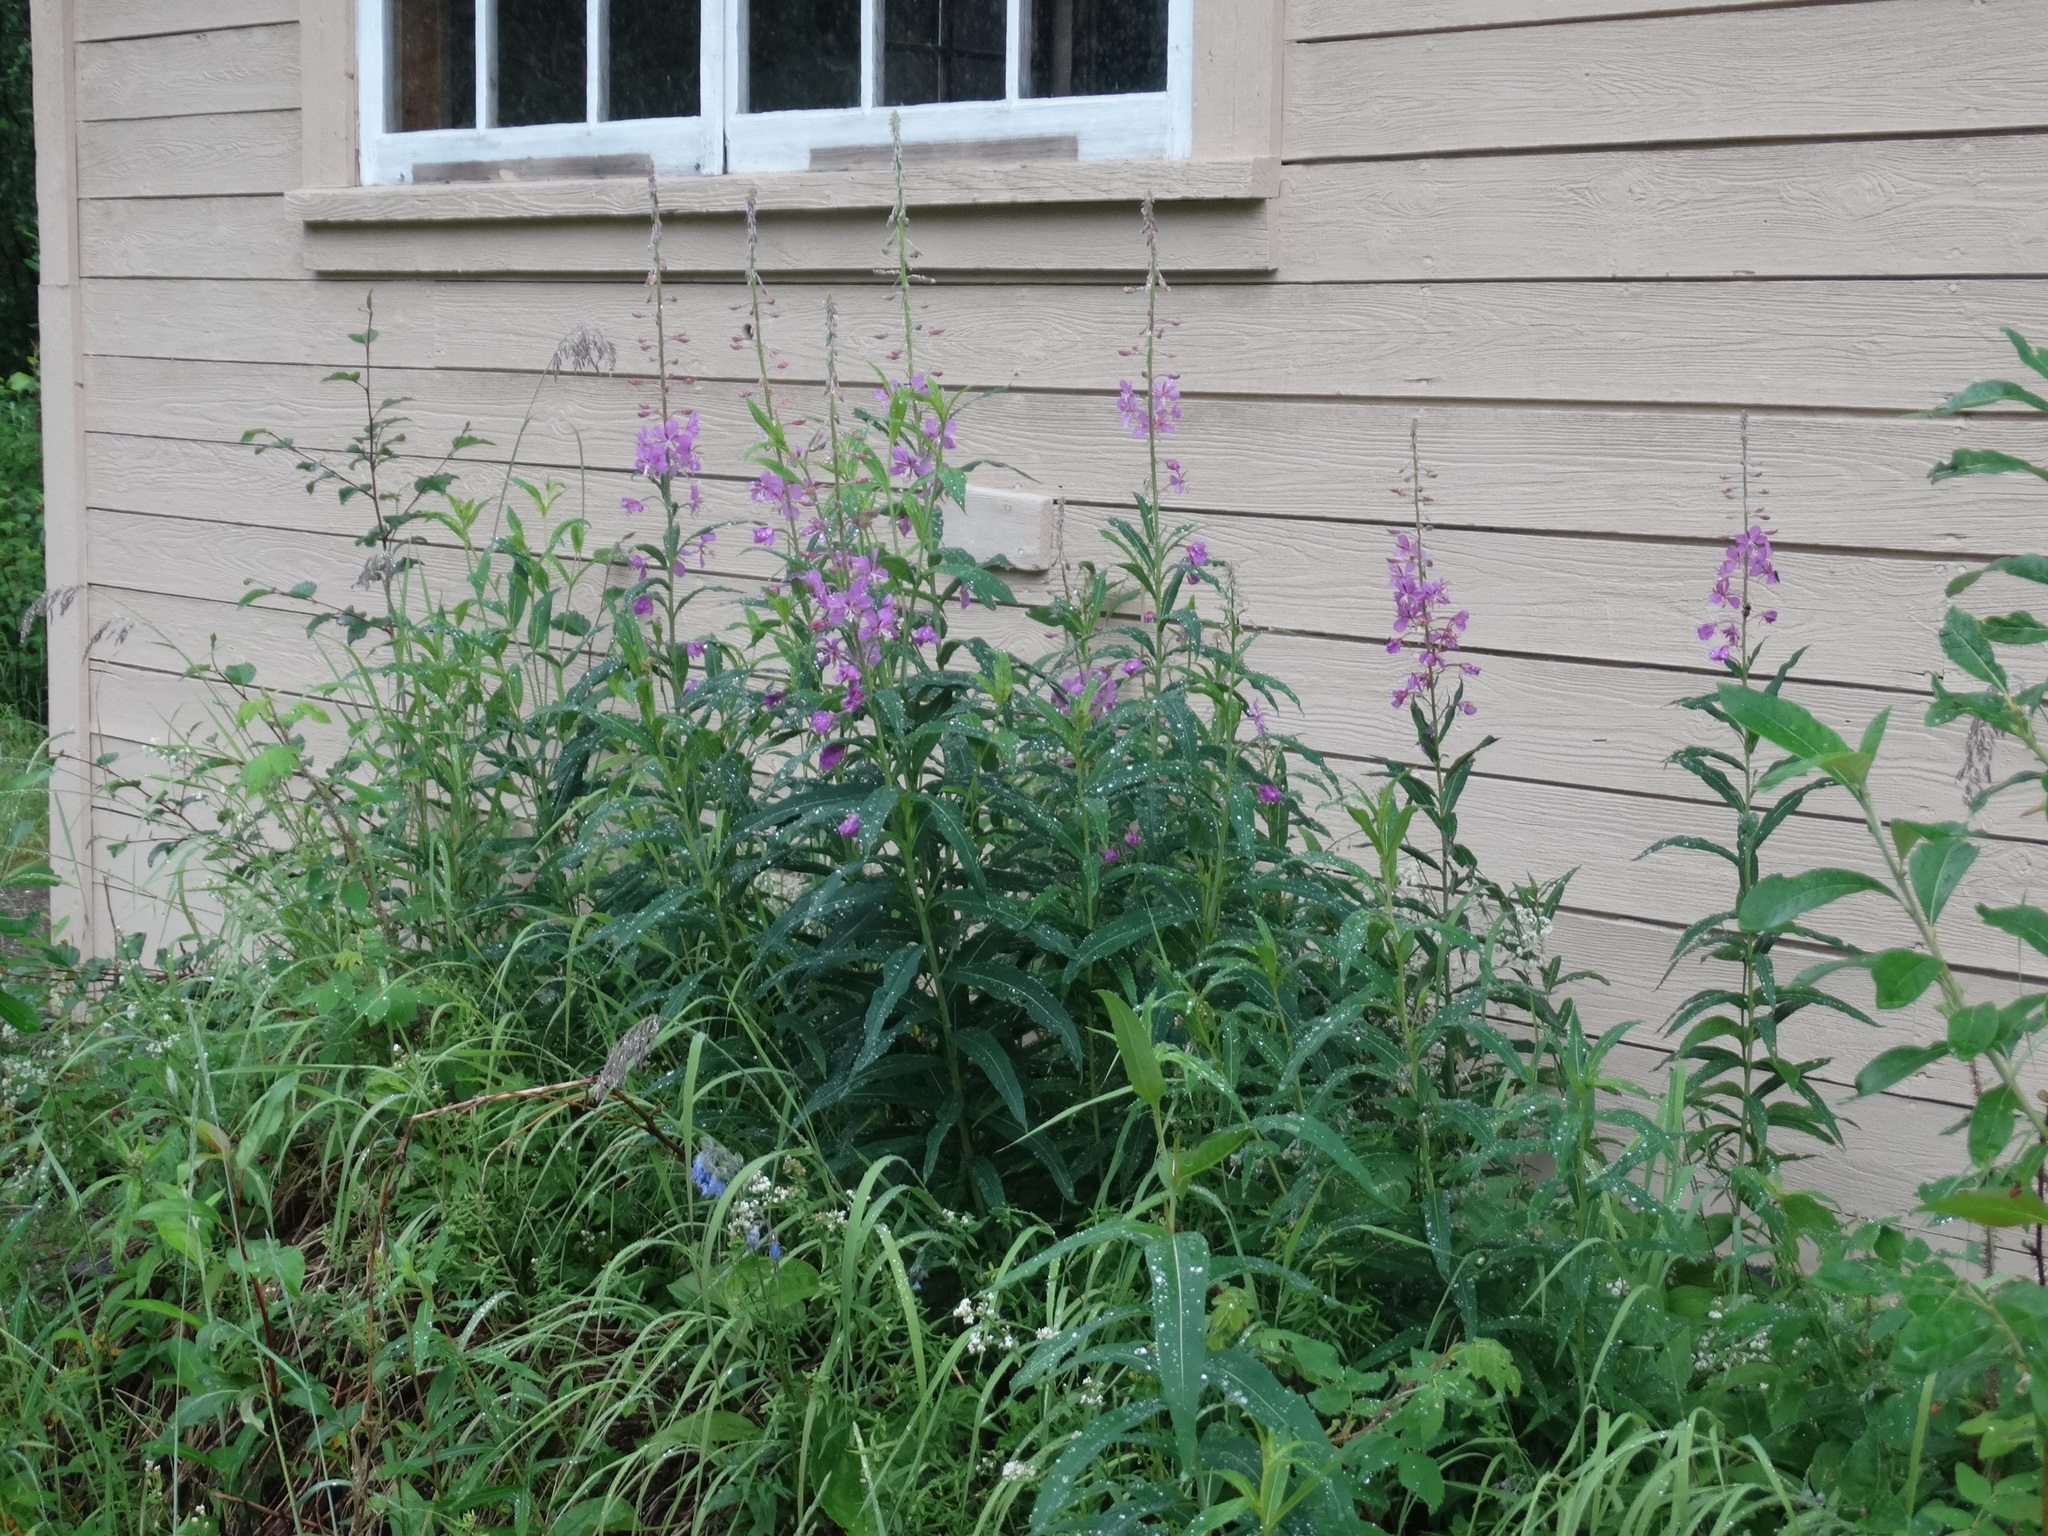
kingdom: Plantae
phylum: Tracheophyta
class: Magnoliopsida
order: Myrtales
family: Onagraceae
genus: Chamaenerion
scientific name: Chamaenerion angustifolium
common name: Fireweed
